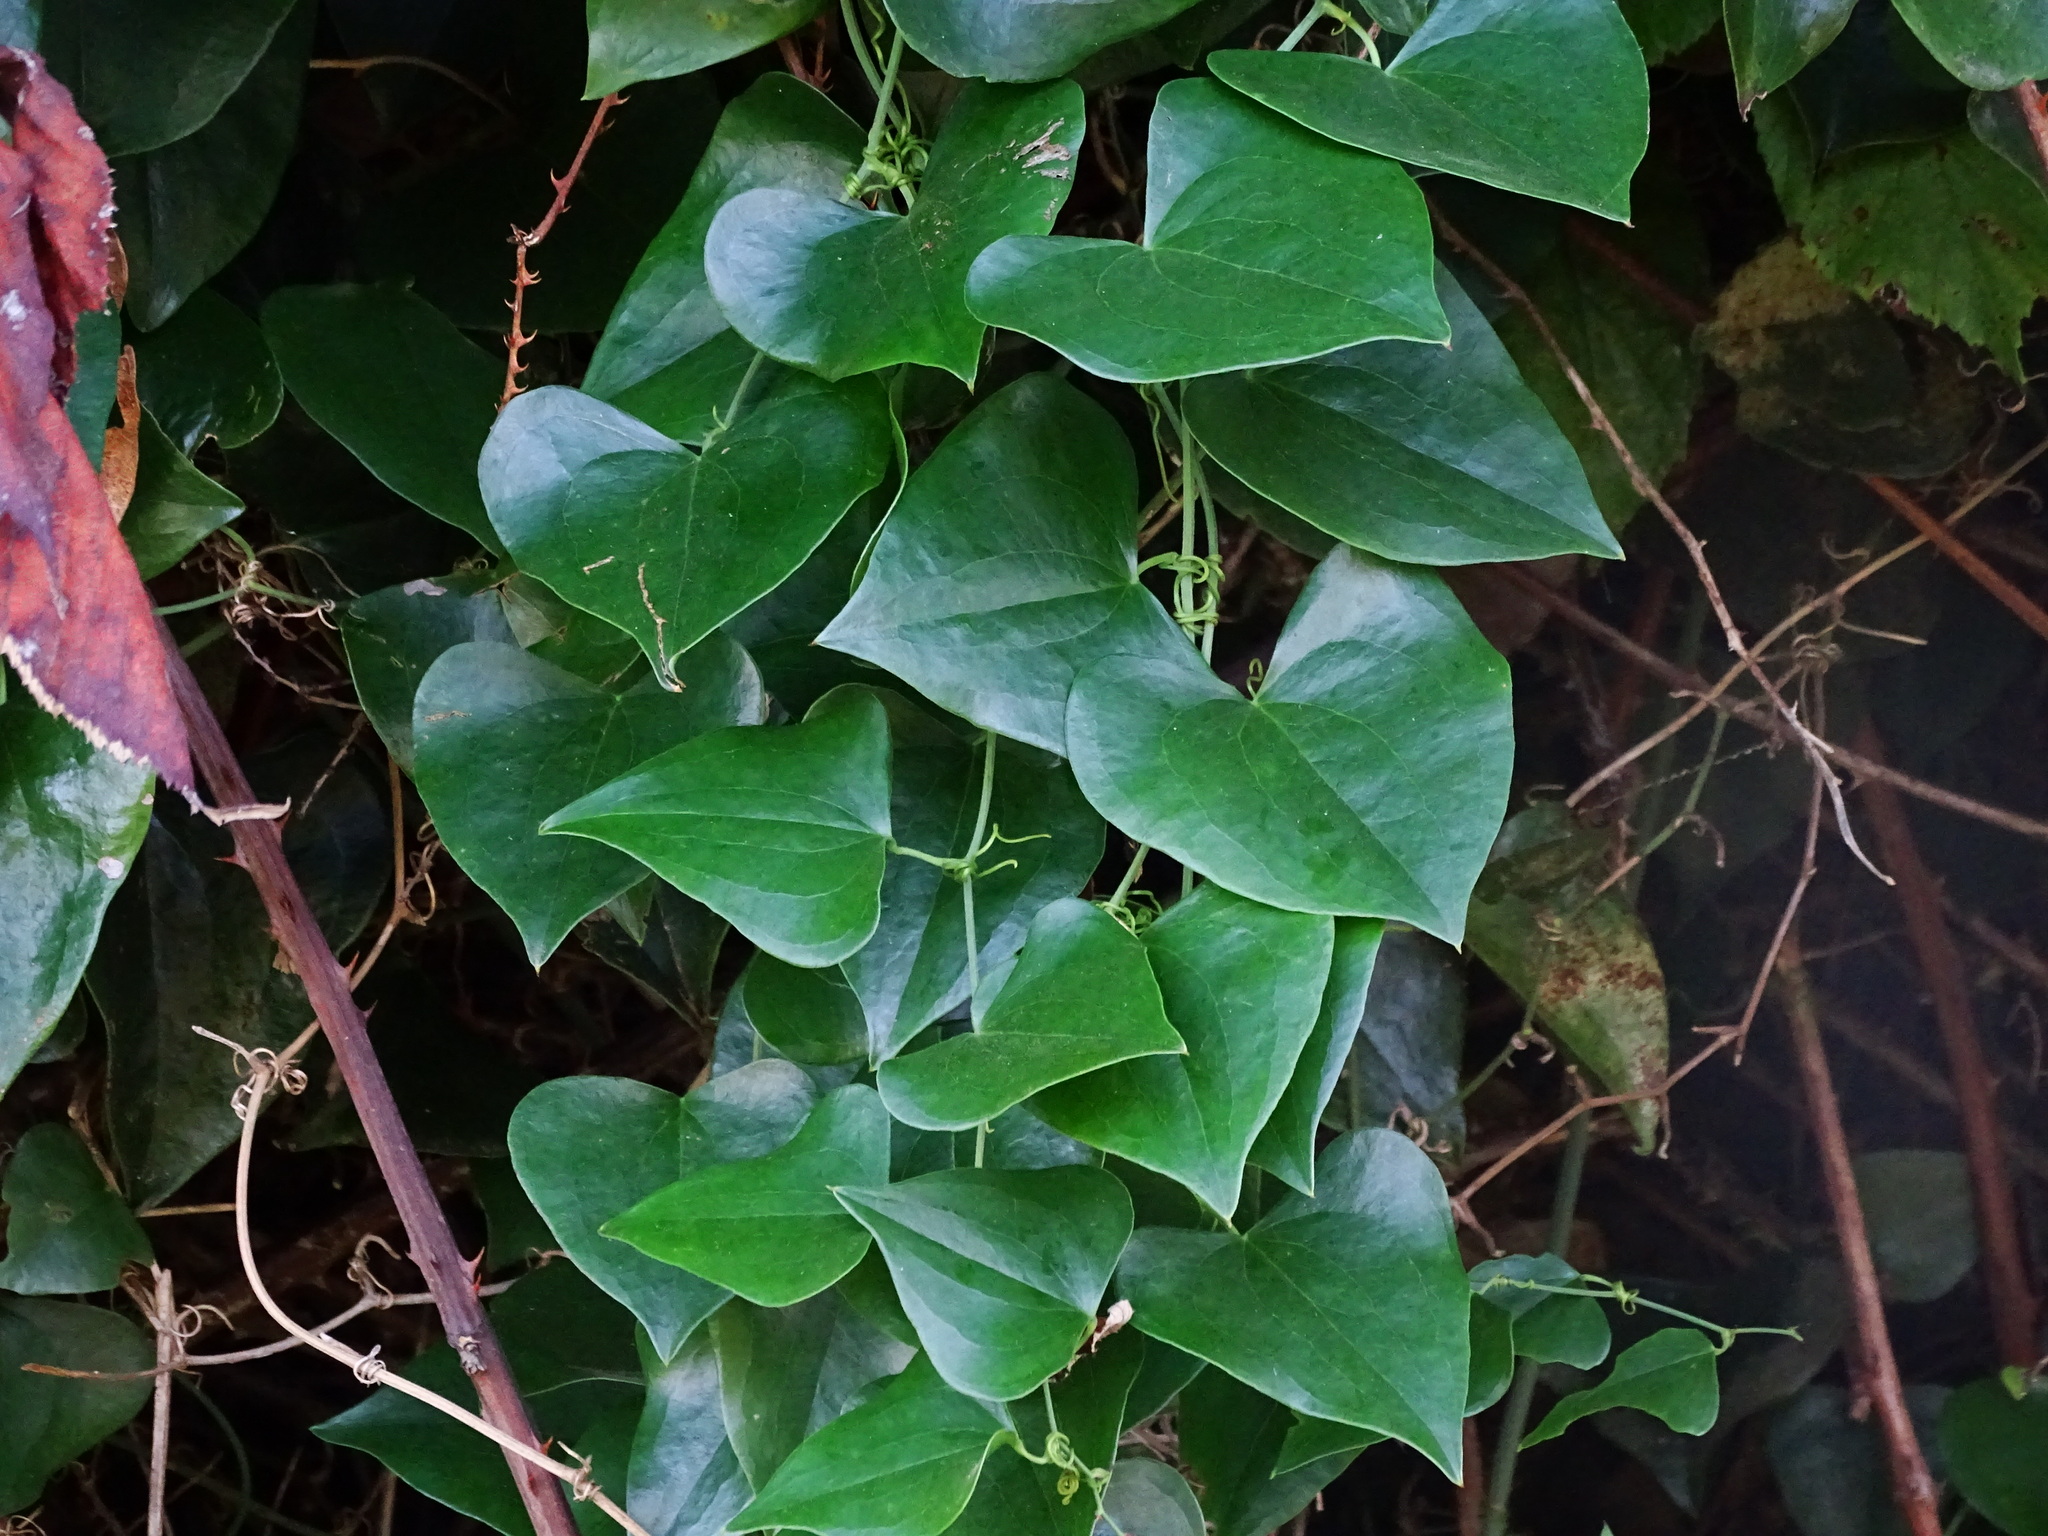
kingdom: Plantae
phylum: Tracheophyta
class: Liliopsida
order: Liliales
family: Smilacaceae
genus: Smilax
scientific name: Smilax aspera
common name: Common smilax
